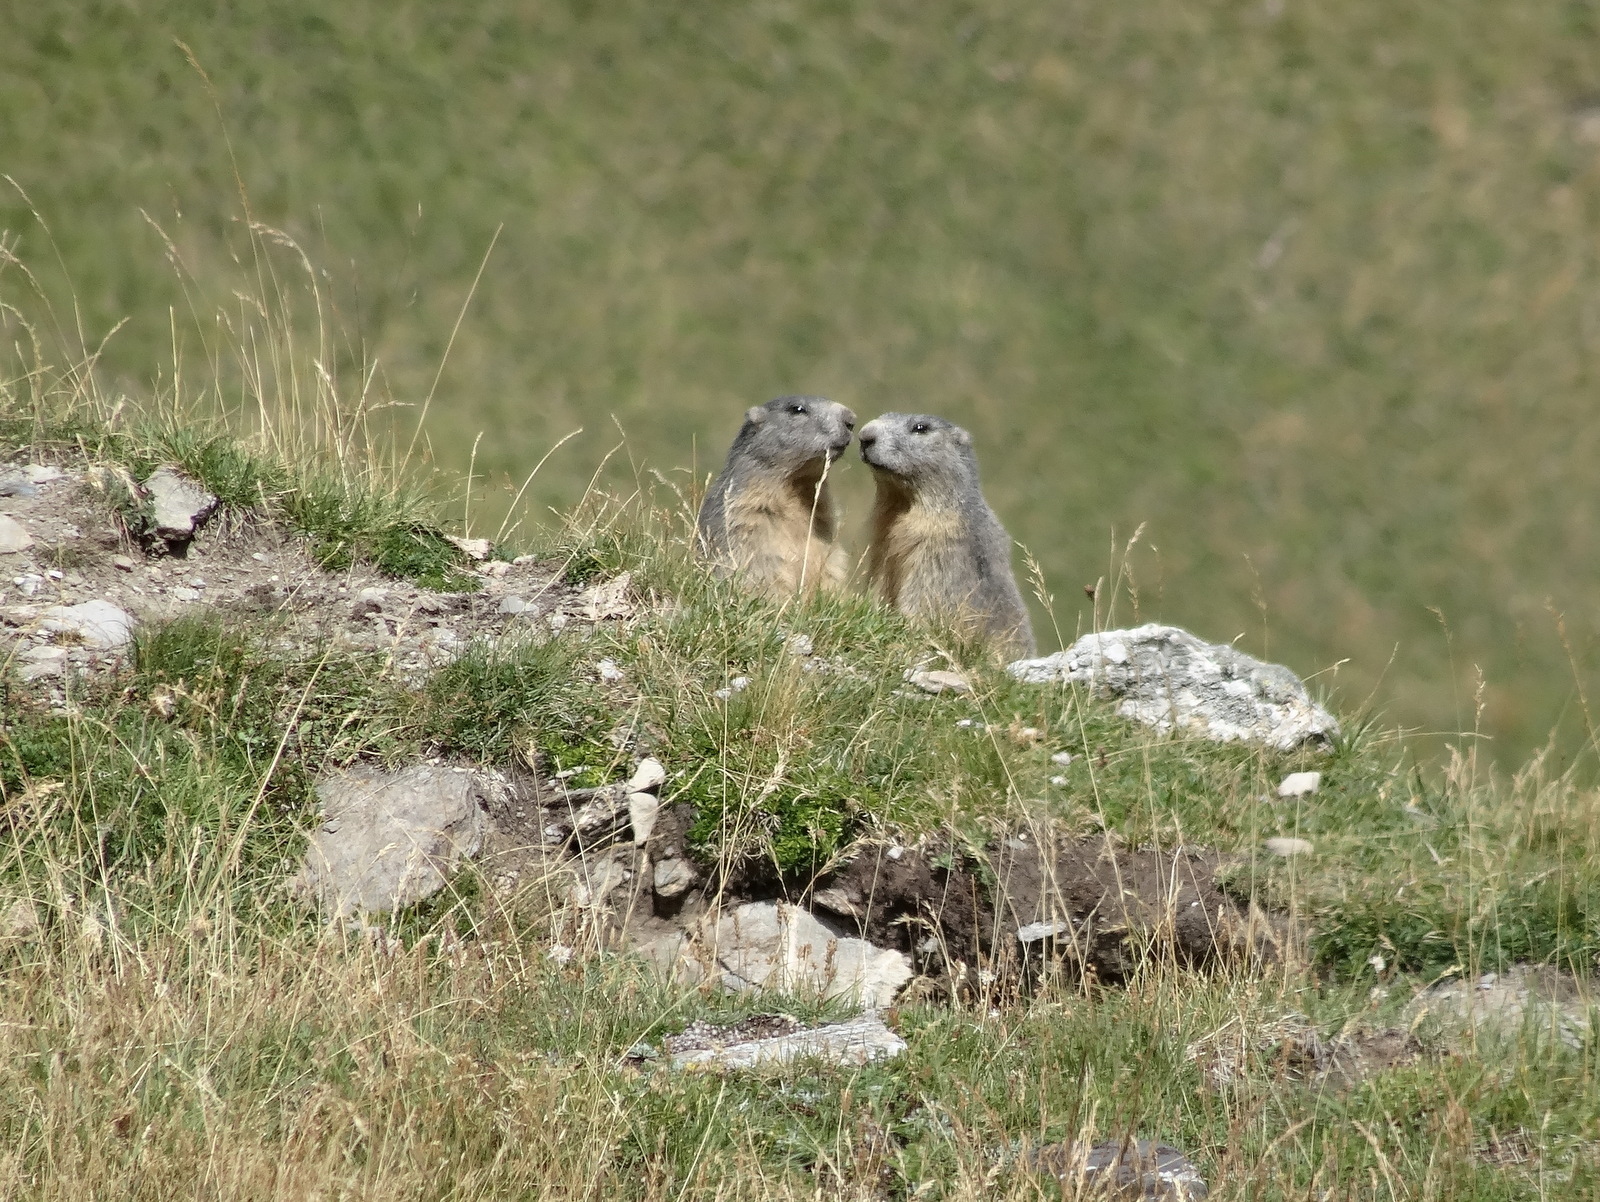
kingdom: Animalia
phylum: Chordata
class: Mammalia
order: Rodentia
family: Sciuridae
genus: Marmota
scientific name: Marmota marmota
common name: Alpine marmot
